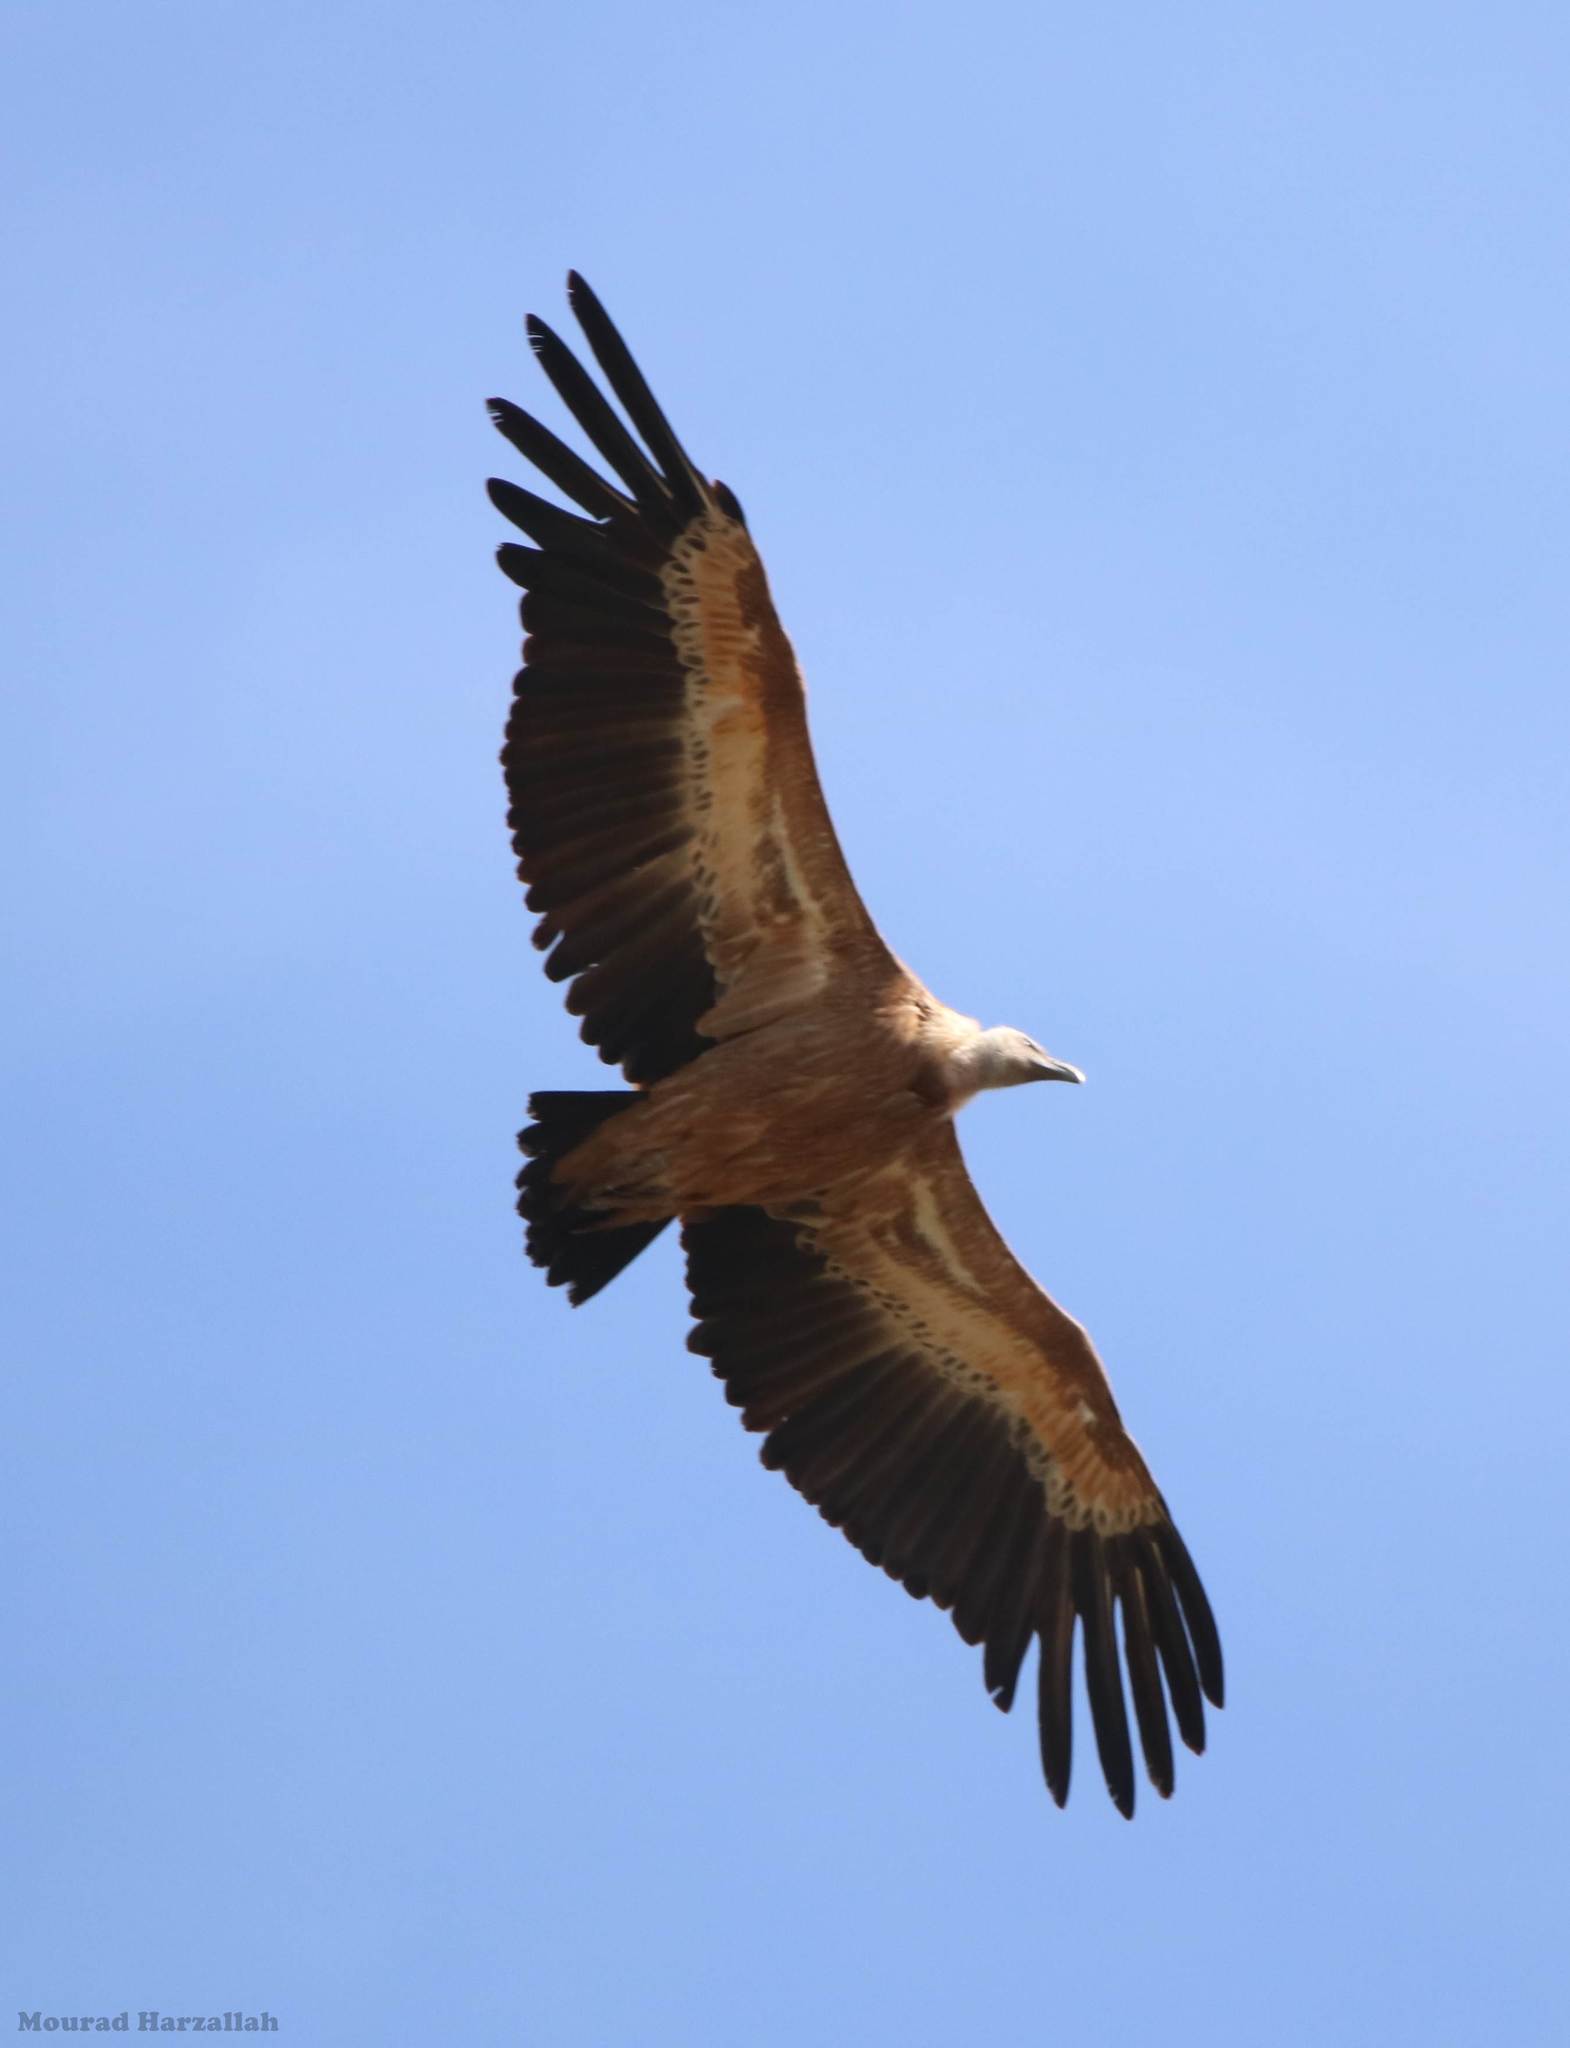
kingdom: Animalia
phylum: Chordata
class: Aves
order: Accipitriformes
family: Accipitridae
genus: Gyps
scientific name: Gyps fulvus
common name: Griffon vulture
